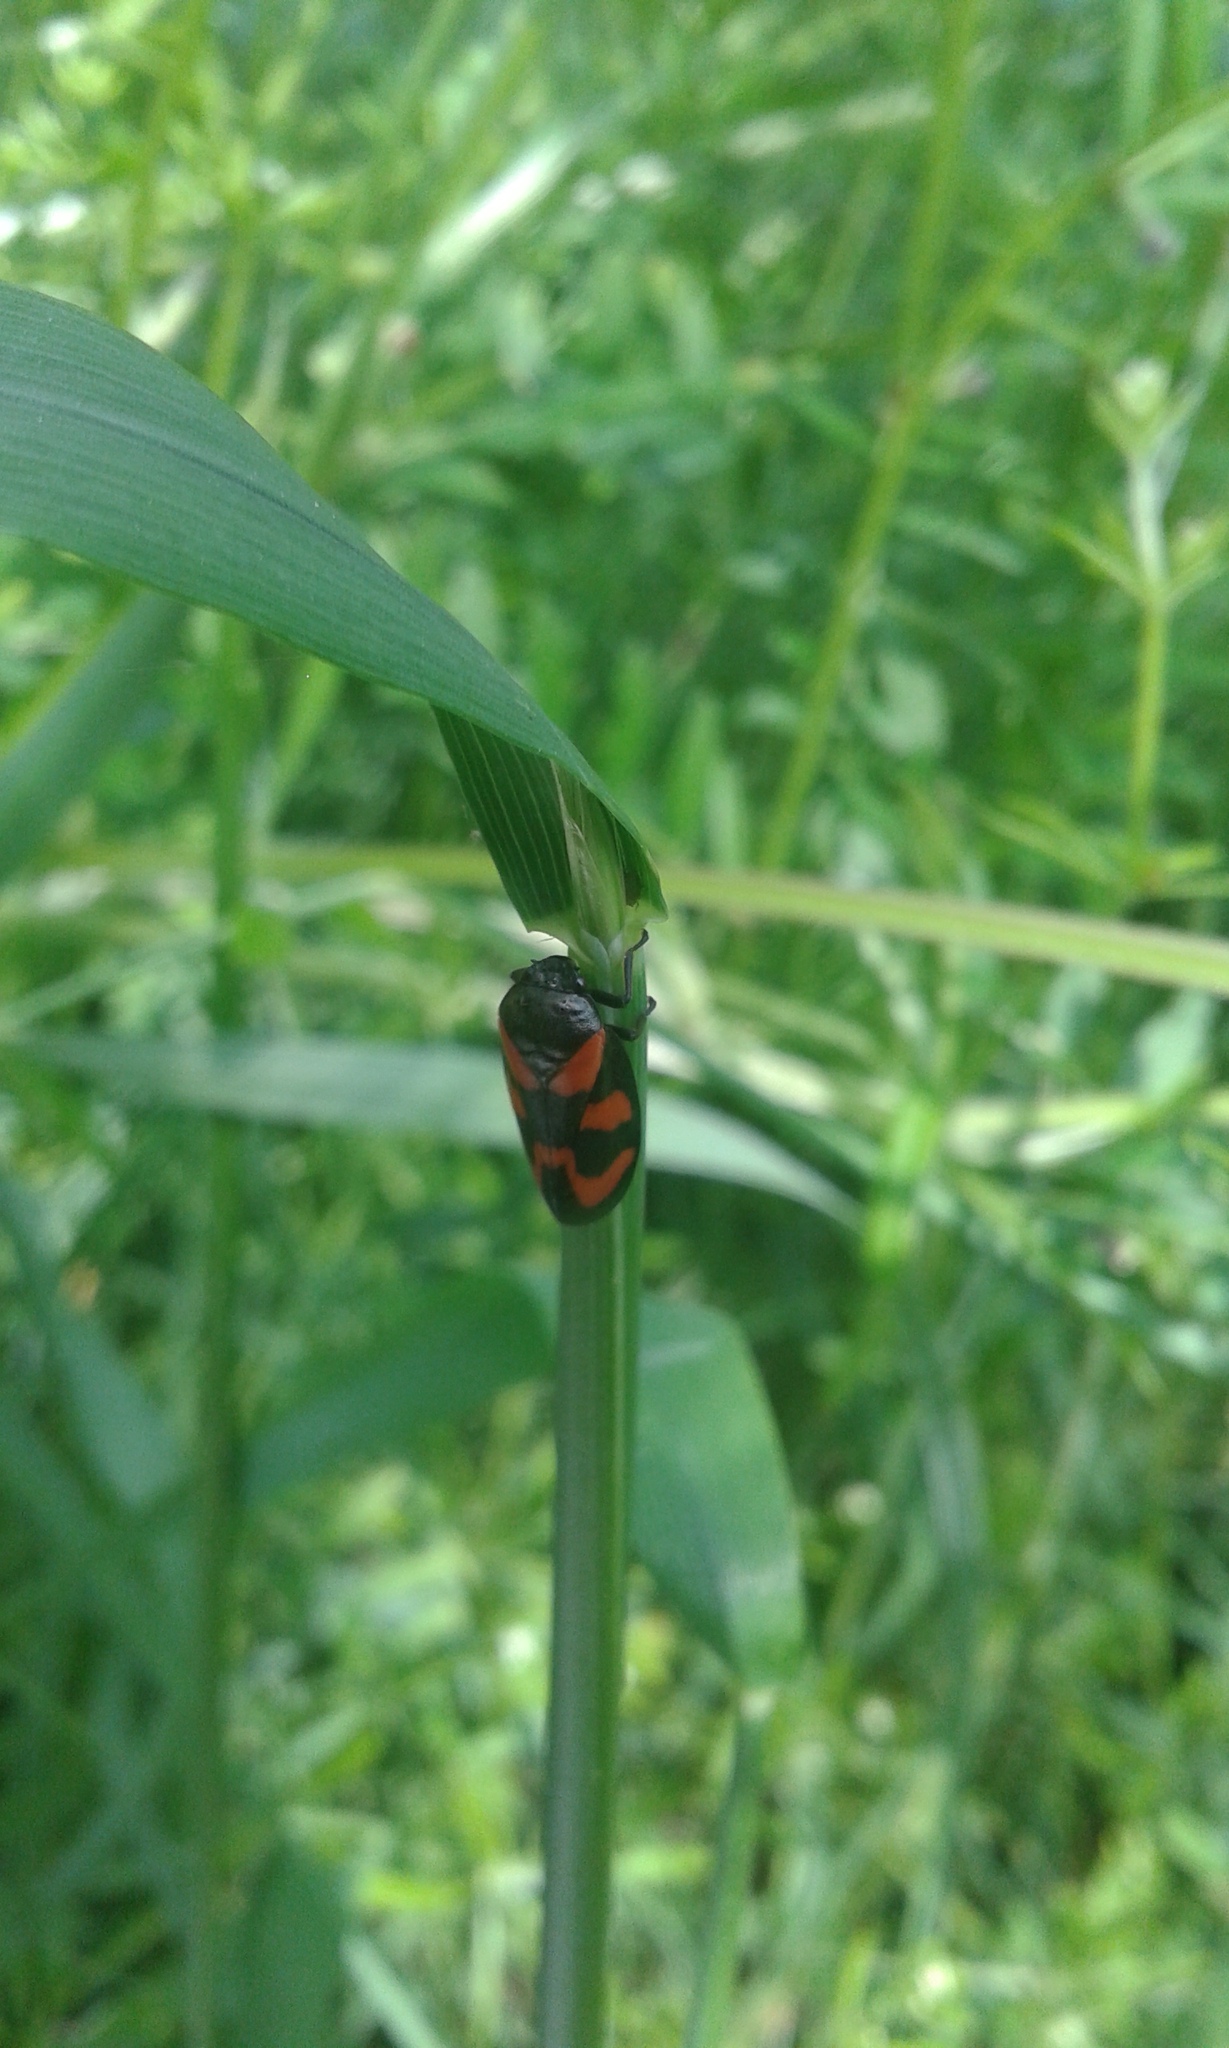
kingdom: Animalia
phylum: Arthropoda
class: Insecta
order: Hemiptera
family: Cercopidae
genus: Cercopis
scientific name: Cercopis vulnerata
